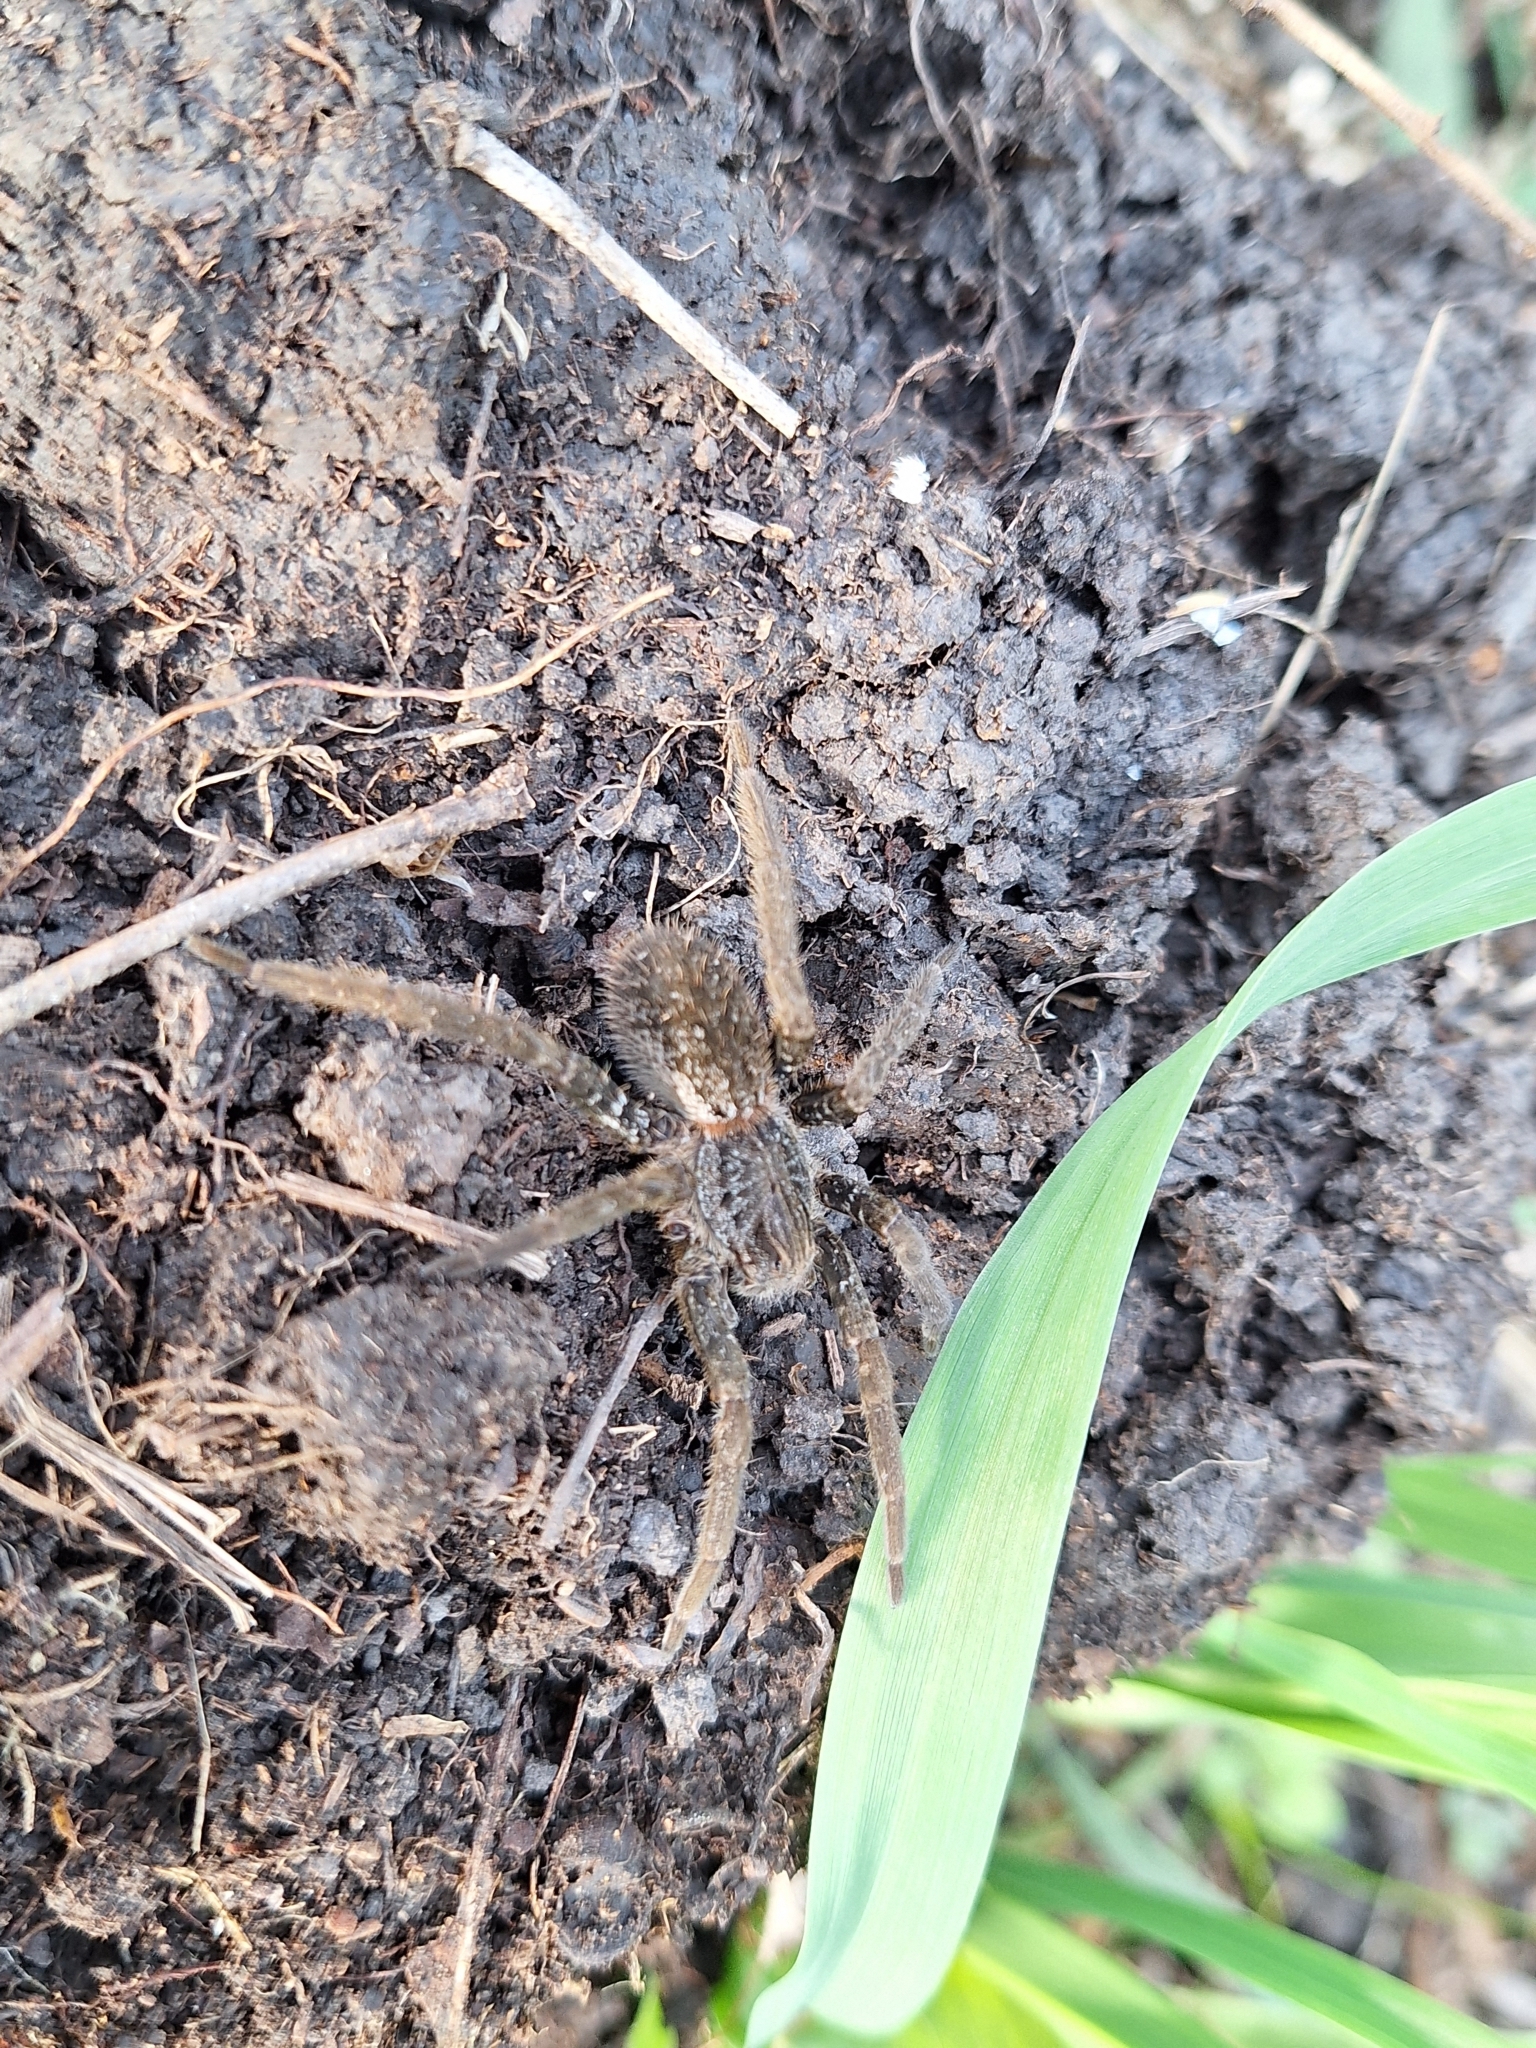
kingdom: Animalia
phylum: Arthropoda
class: Arachnida
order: Araneae
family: Ctenidae
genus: Ancylometes
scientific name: Ancylometes concolor
